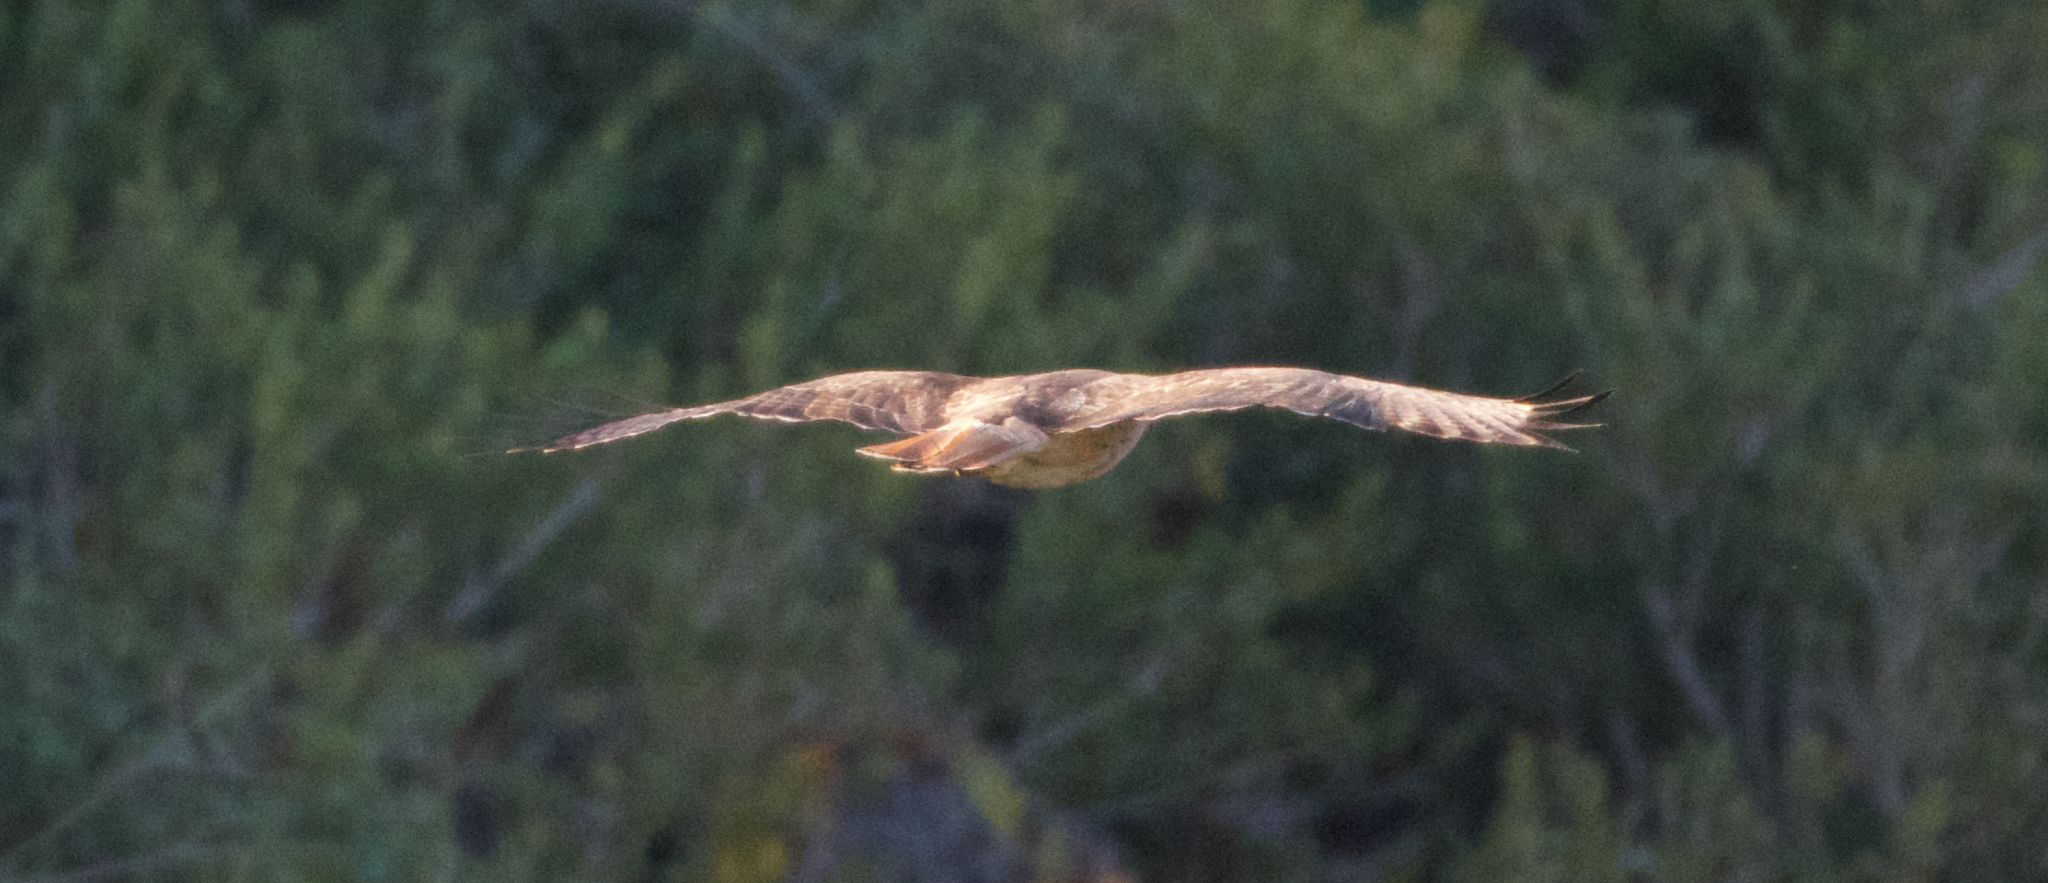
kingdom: Animalia
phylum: Chordata
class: Aves
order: Accipitriformes
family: Accipitridae
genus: Buteo
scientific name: Buteo jamaicensis
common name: Red-tailed hawk
